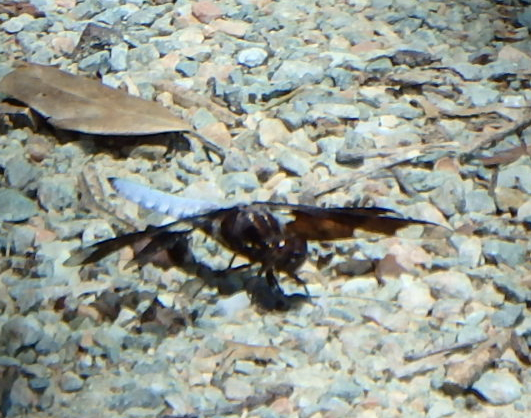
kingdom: Animalia
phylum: Arthropoda
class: Insecta
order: Odonata
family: Libellulidae
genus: Plathemis
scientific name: Plathemis lydia
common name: Common whitetail
